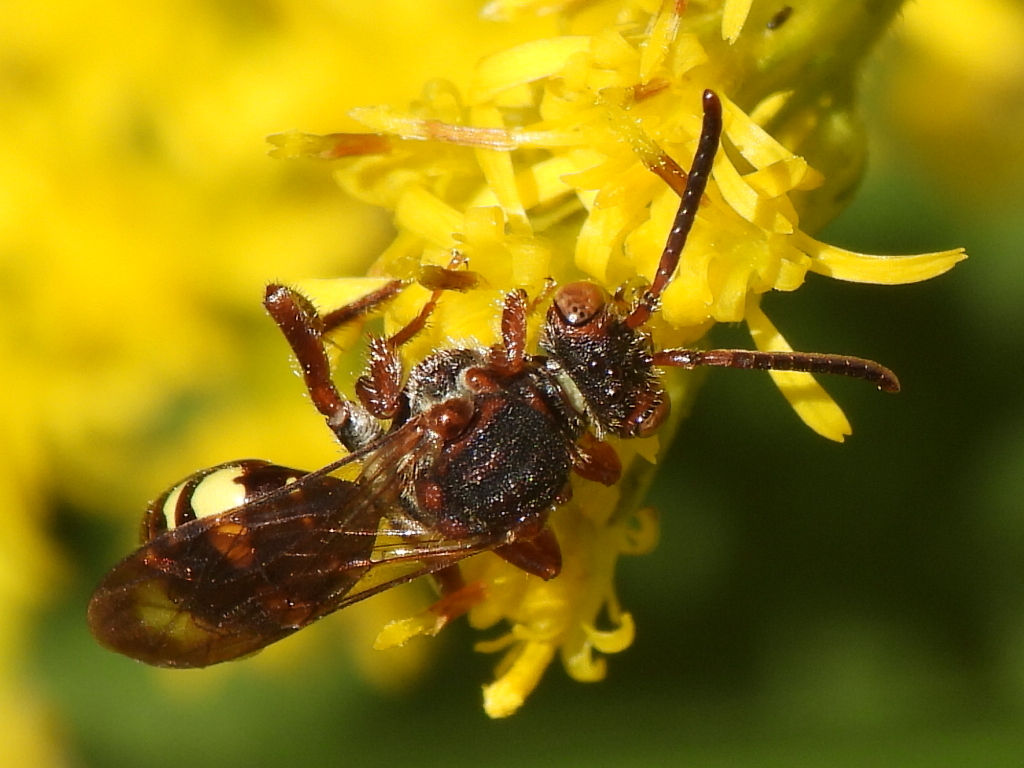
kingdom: Animalia
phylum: Arthropoda
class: Insecta
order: Hymenoptera
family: Apidae
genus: Nomada
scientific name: Nomada banksi
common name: Banks' nomad bee
